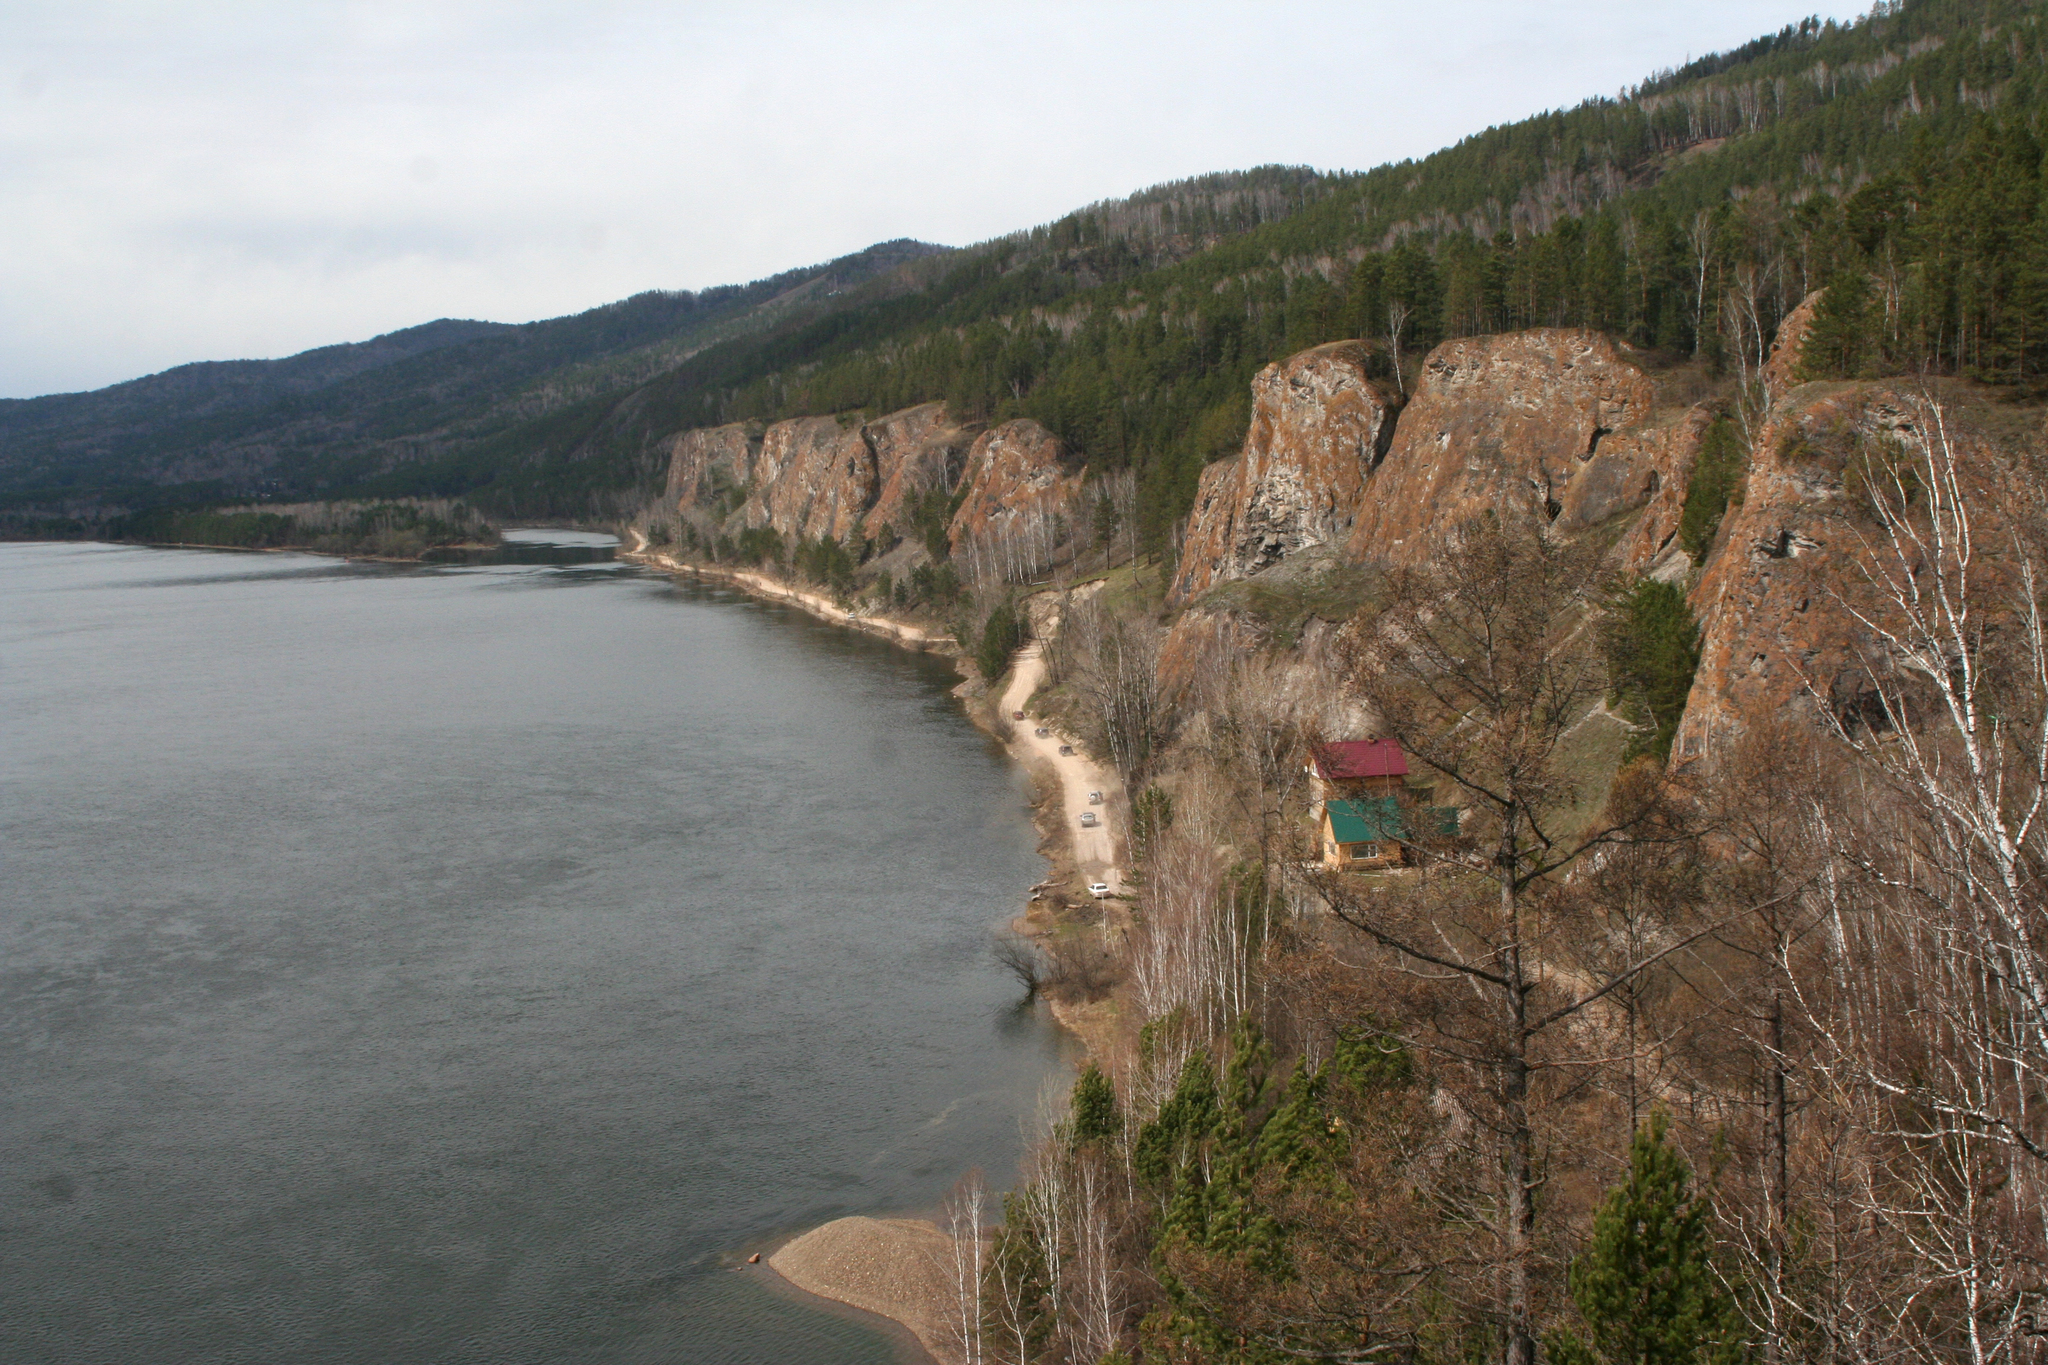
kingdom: Plantae
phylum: Tracheophyta
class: Magnoliopsida
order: Fagales
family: Betulaceae
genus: Betula
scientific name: Betula pendula
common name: Silver birch
